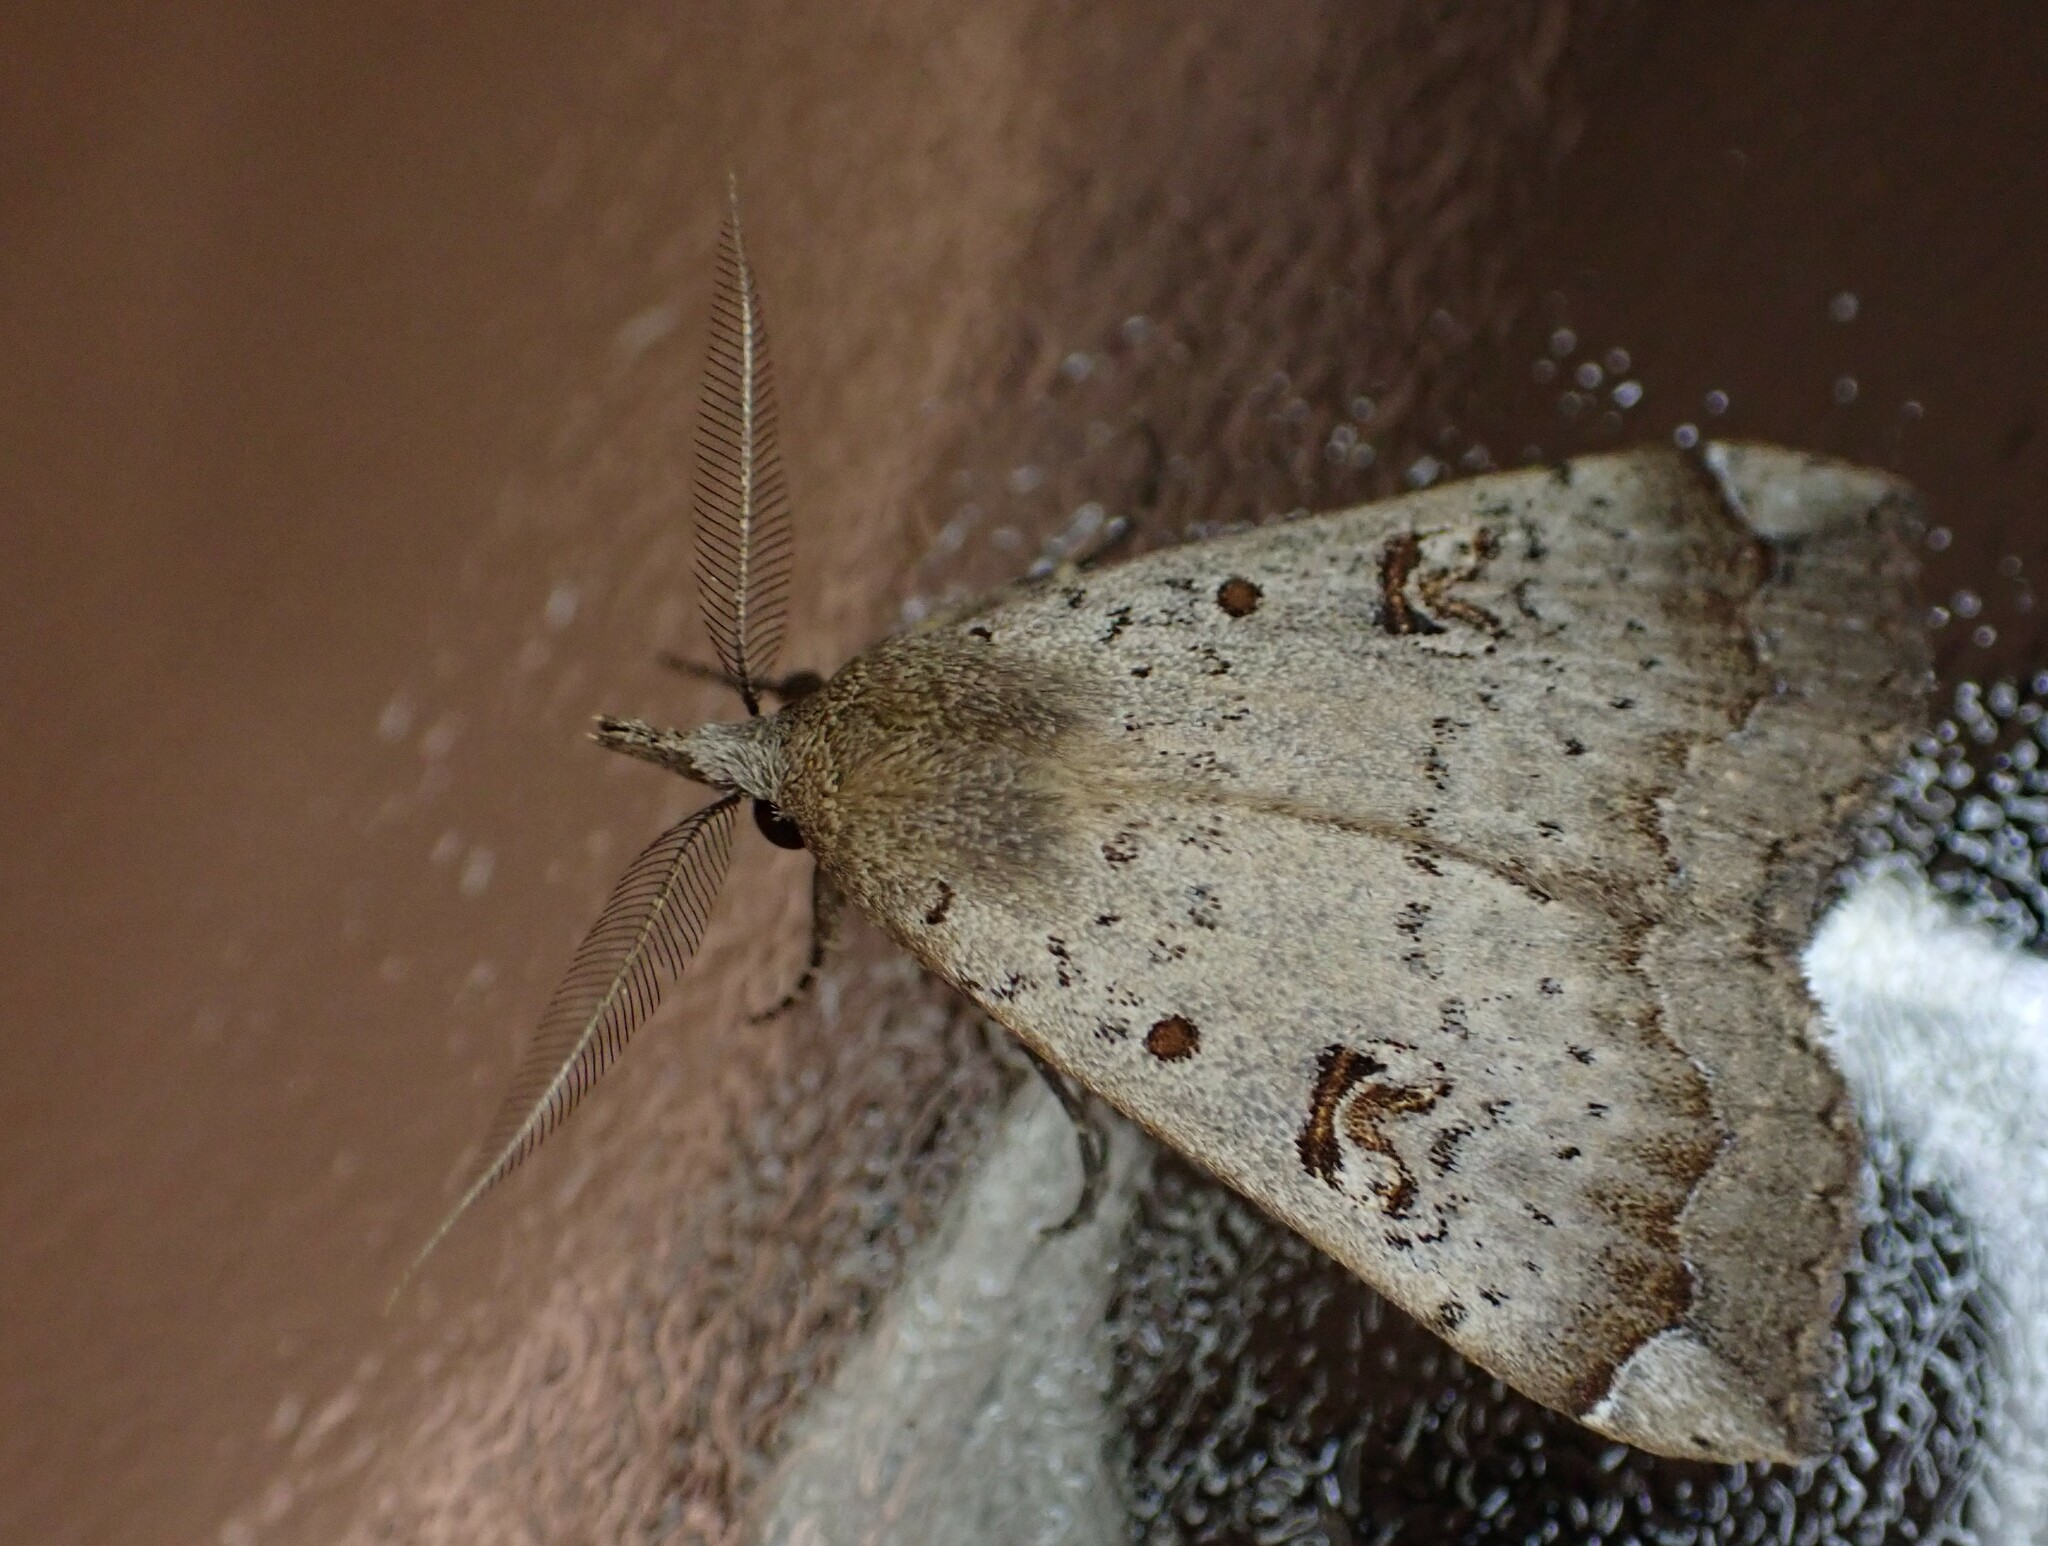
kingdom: Animalia
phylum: Arthropoda
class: Insecta
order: Lepidoptera
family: Erebidae
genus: Rhapsa
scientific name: Rhapsa scotosialis
